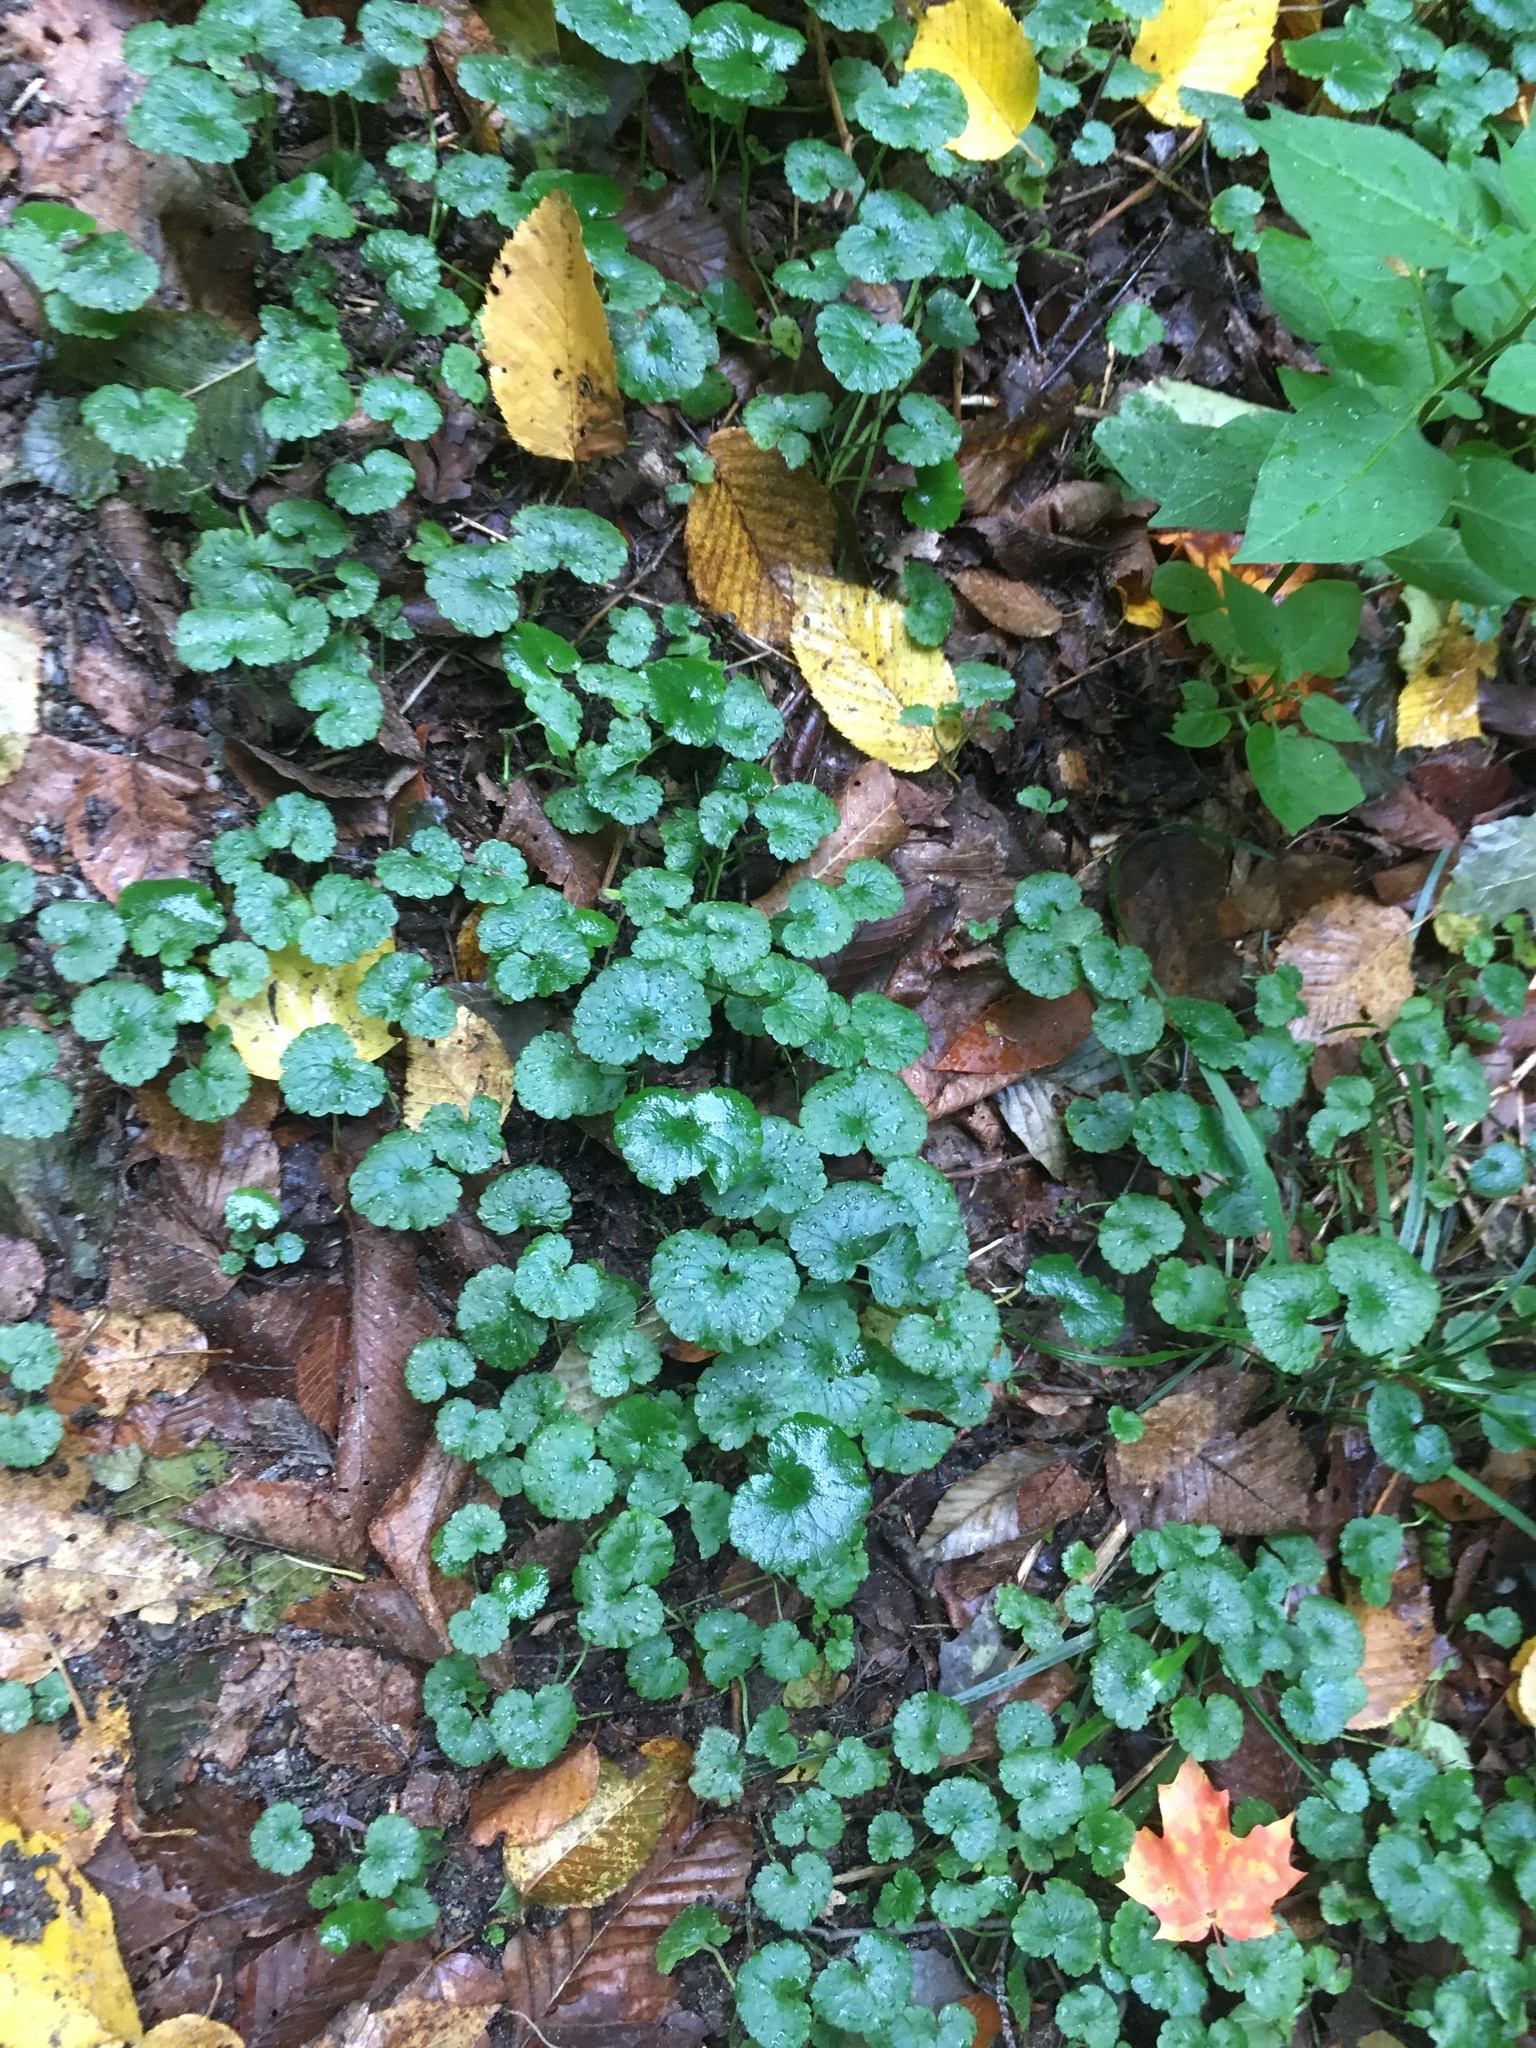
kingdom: Plantae
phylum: Tracheophyta
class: Magnoliopsida
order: Lamiales
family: Lamiaceae
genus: Glechoma
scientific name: Glechoma hederacea
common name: Ground ivy
